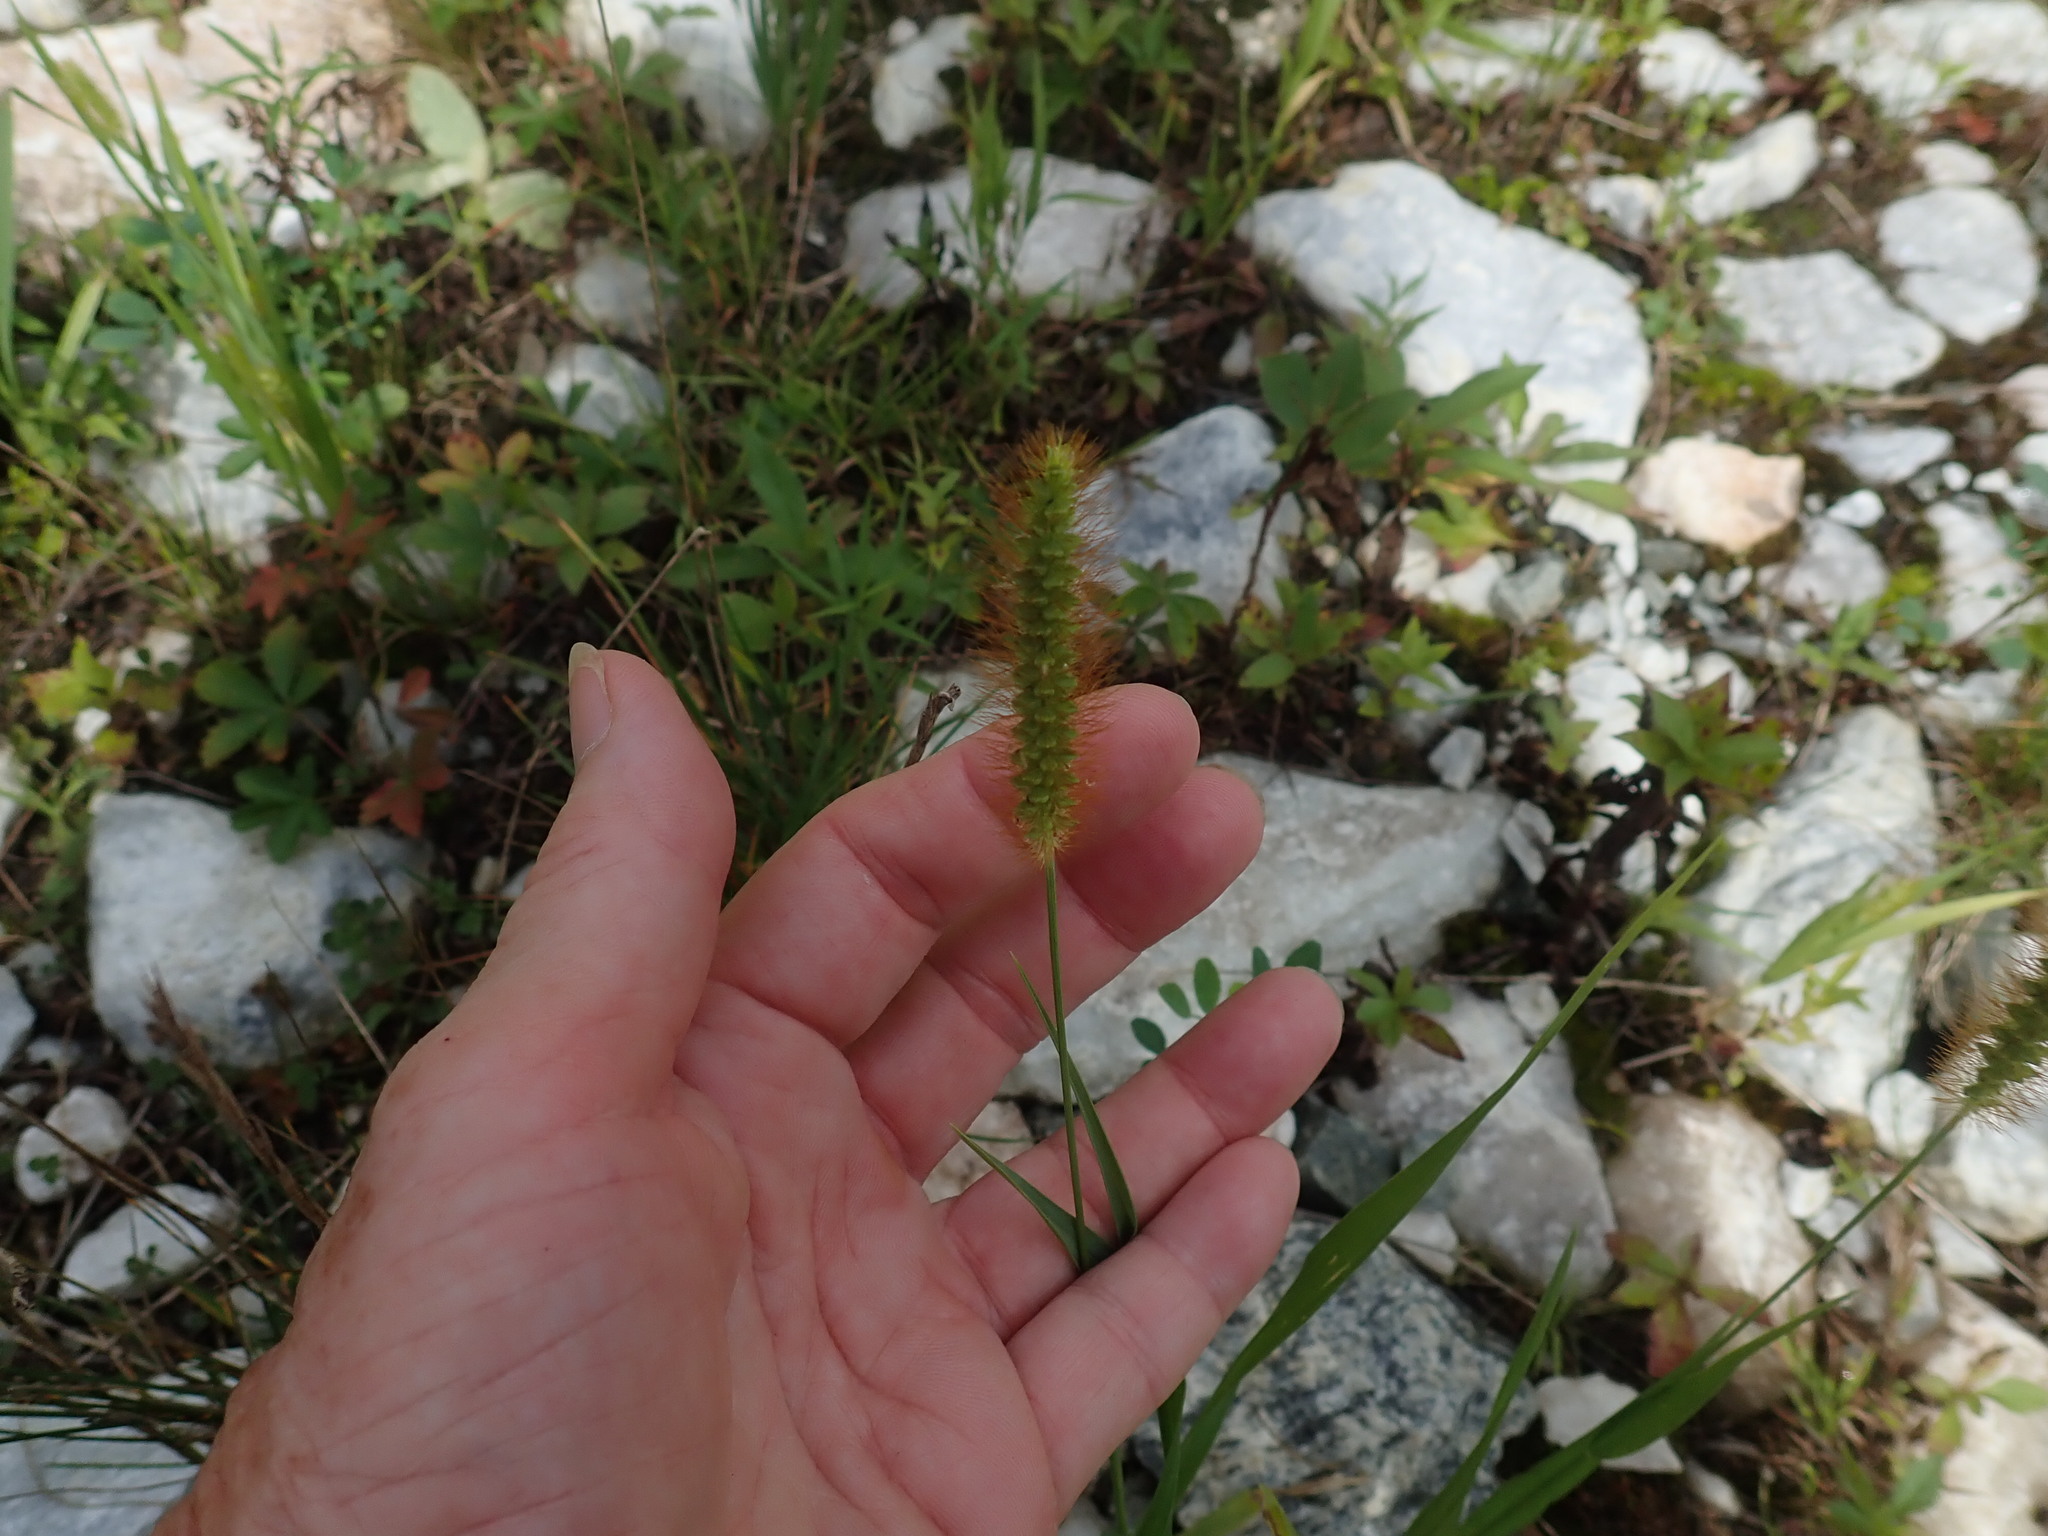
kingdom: Plantae
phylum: Tracheophyta
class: Liliopsida
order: Poales
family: Poaceae
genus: Setaria
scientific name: Setaria pumila
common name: Yellow bristle-grass
